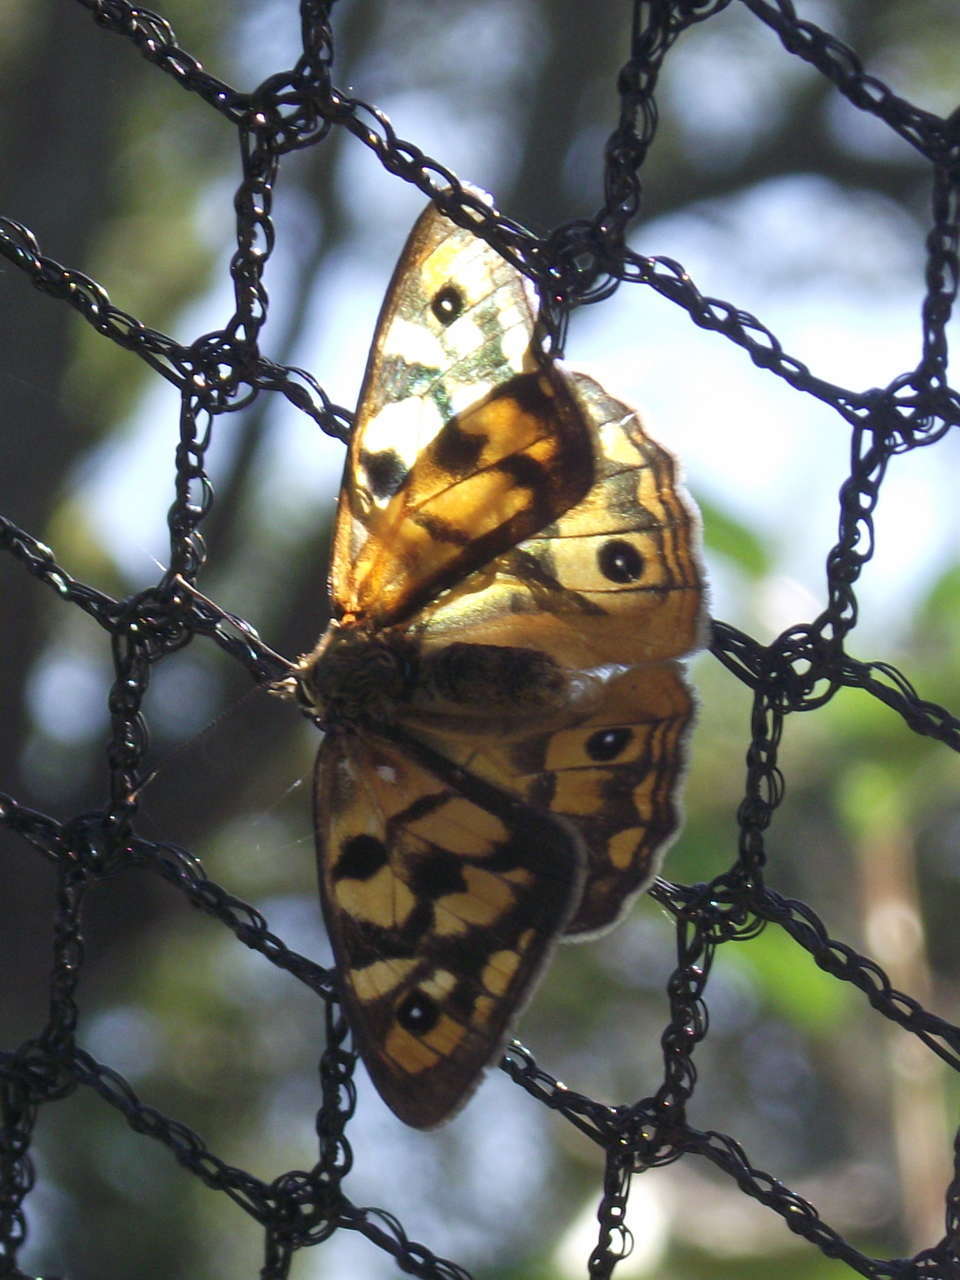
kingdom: Animalia
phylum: Arthropoda
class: Insecta
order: Lepidoptera
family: Nymphalidae
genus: Heteronympha
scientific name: Heteronympha penelope
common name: Shouldered brown
